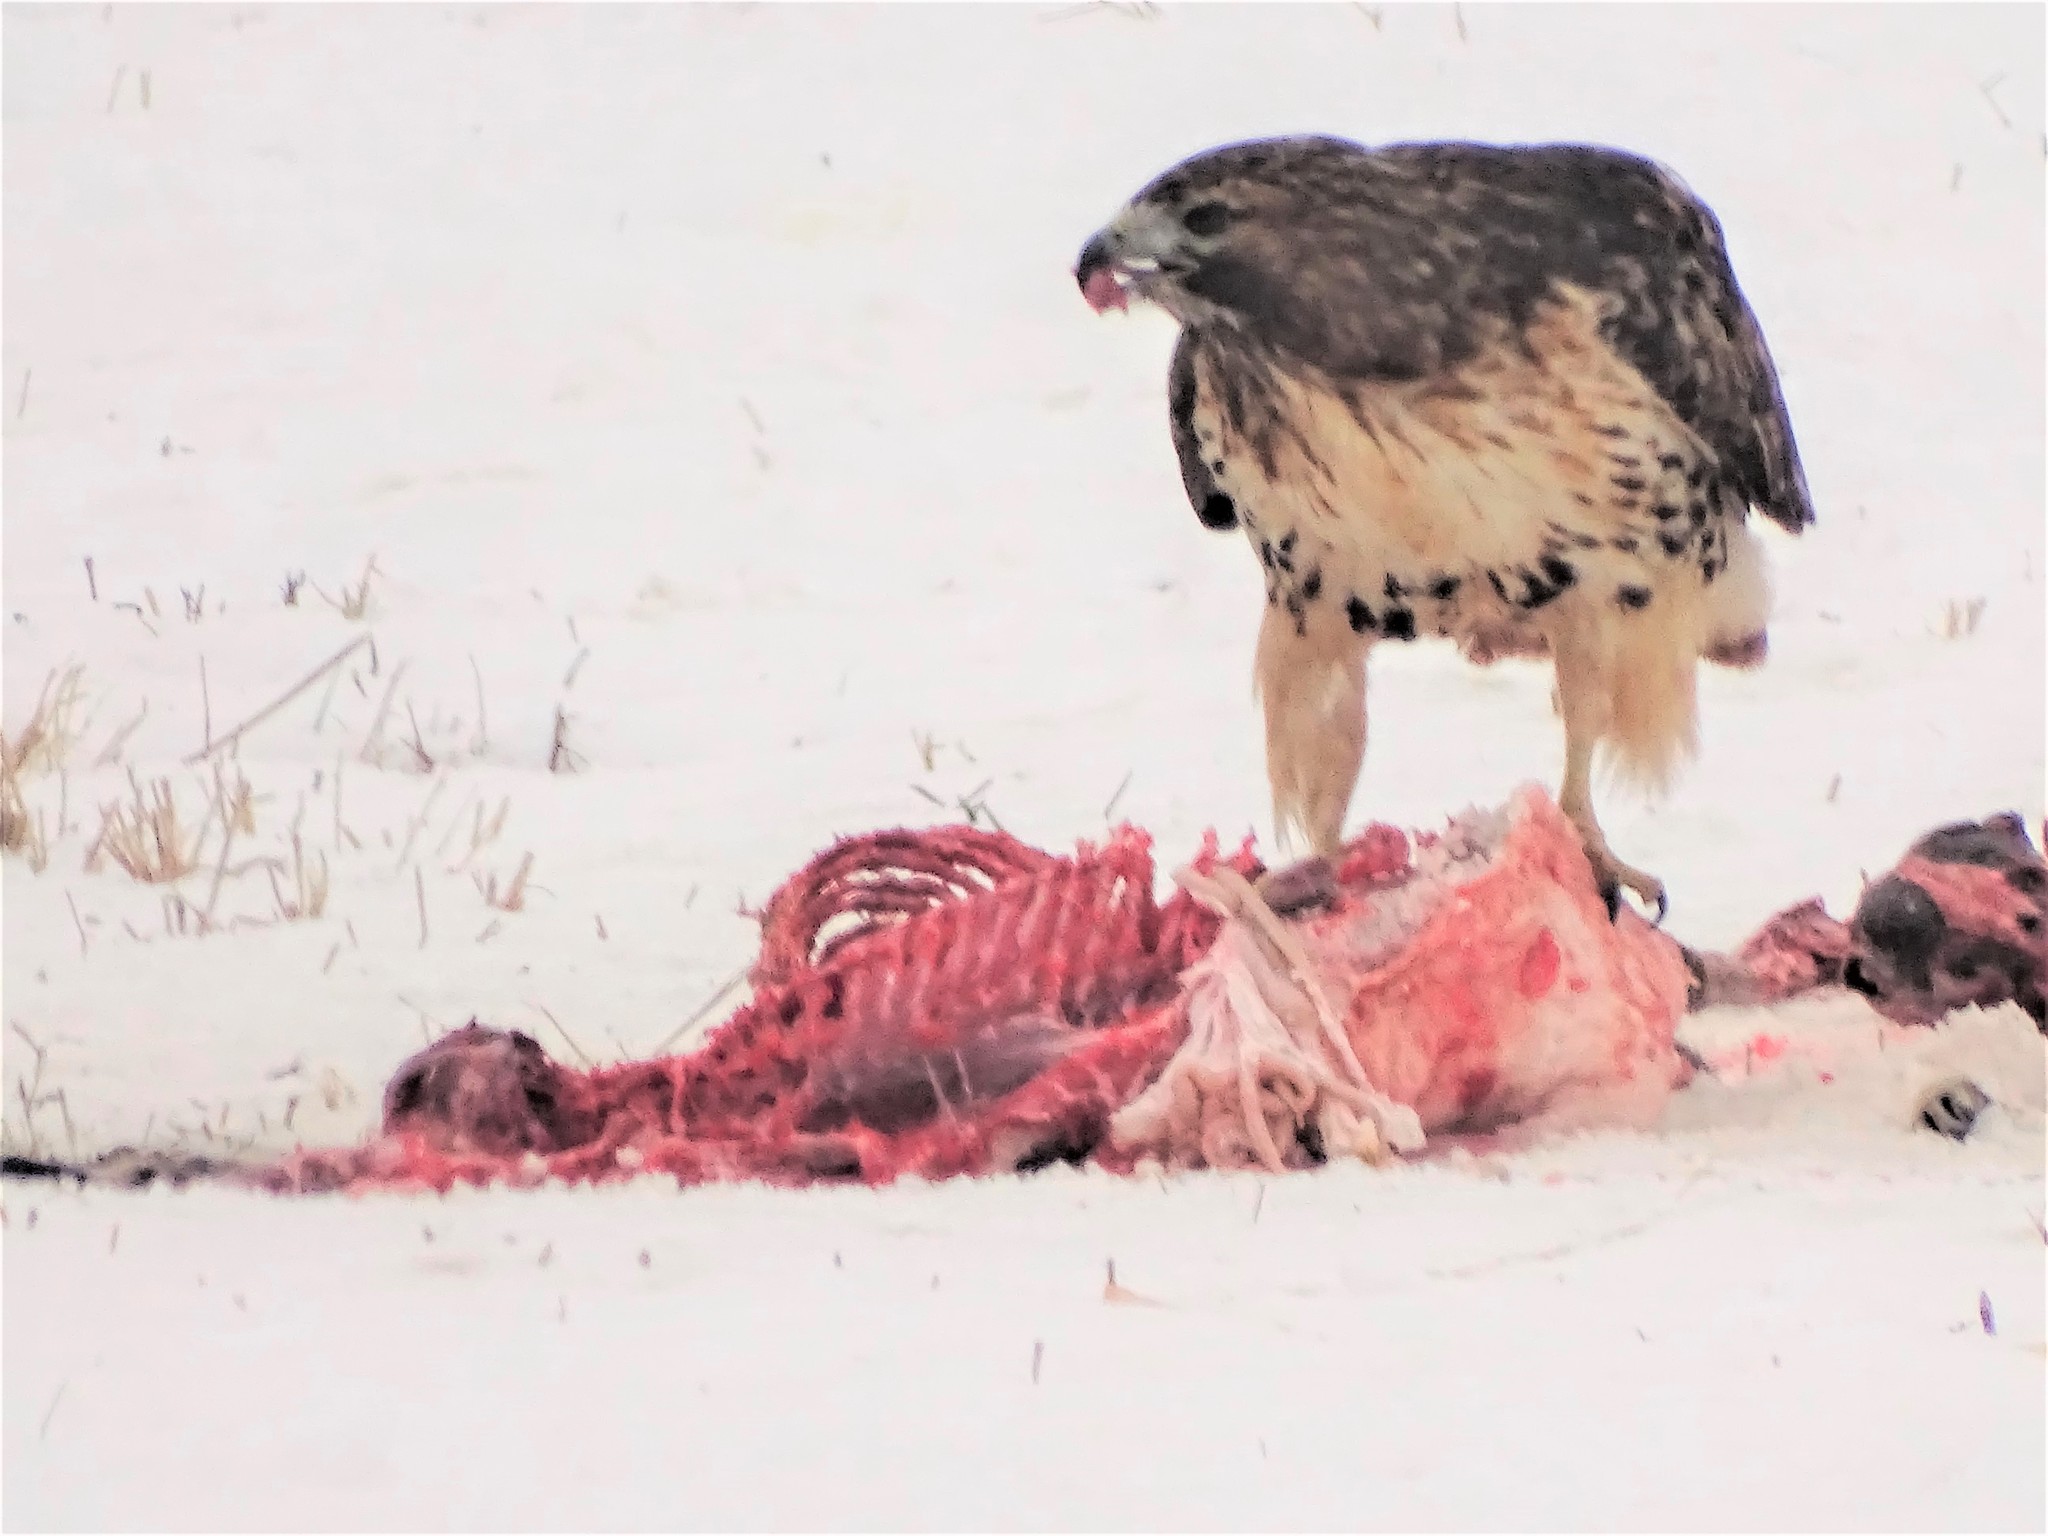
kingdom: Animalia
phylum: Chordata
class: Aves
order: Accipitriformes
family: Accipitridae
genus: Buteo
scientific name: Buteo jamaicensis
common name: Red-tailed hawk
